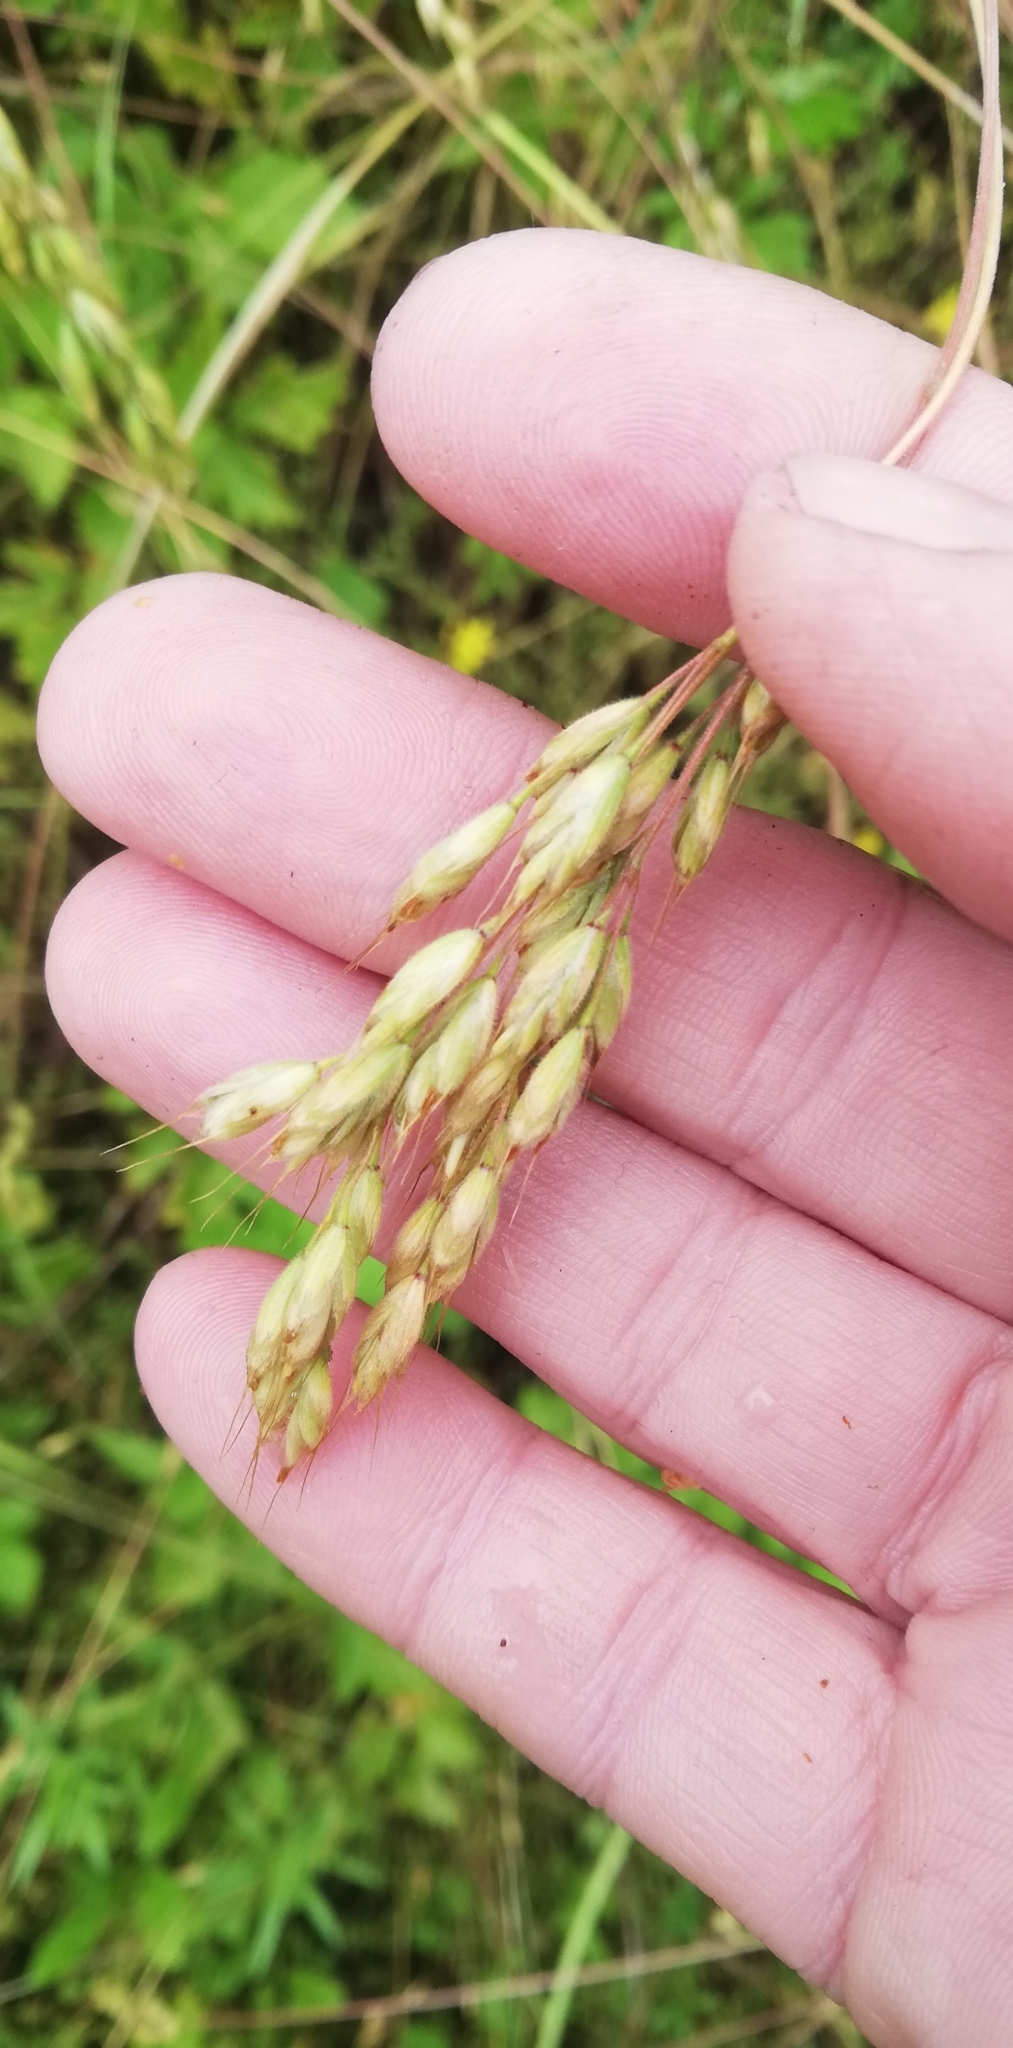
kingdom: Plantae
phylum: Tracheophyta
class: Liliopsida
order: Poales
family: Poaceae
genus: Bromus
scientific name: Bromus hordeaceus
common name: Soft brome
